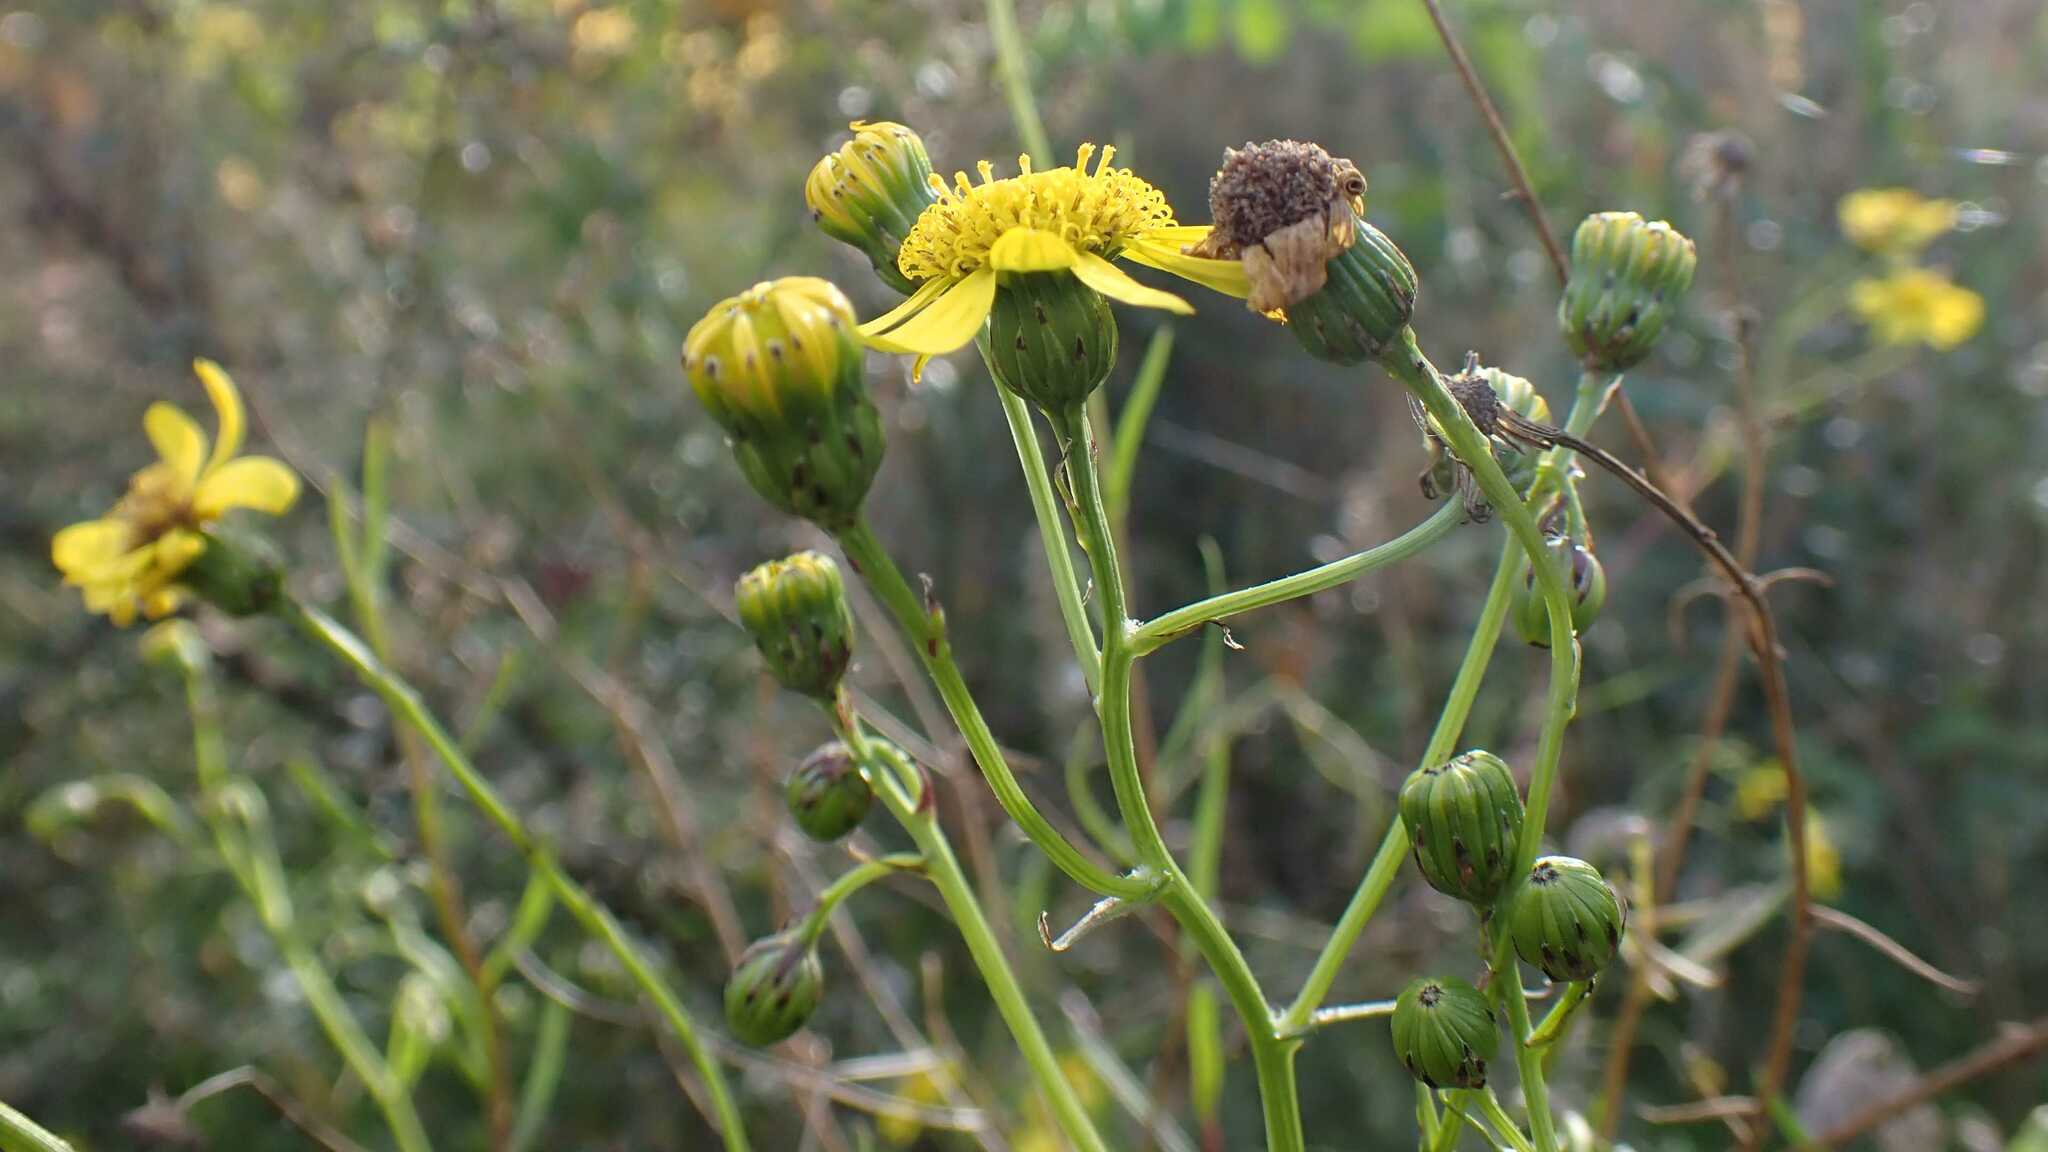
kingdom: Plantae
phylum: Tracheophyta
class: Magnoliopsida
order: Asterales
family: Asteraceae
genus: Senecio
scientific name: Senecio inaequidens
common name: Narrow-leaved ragwort
